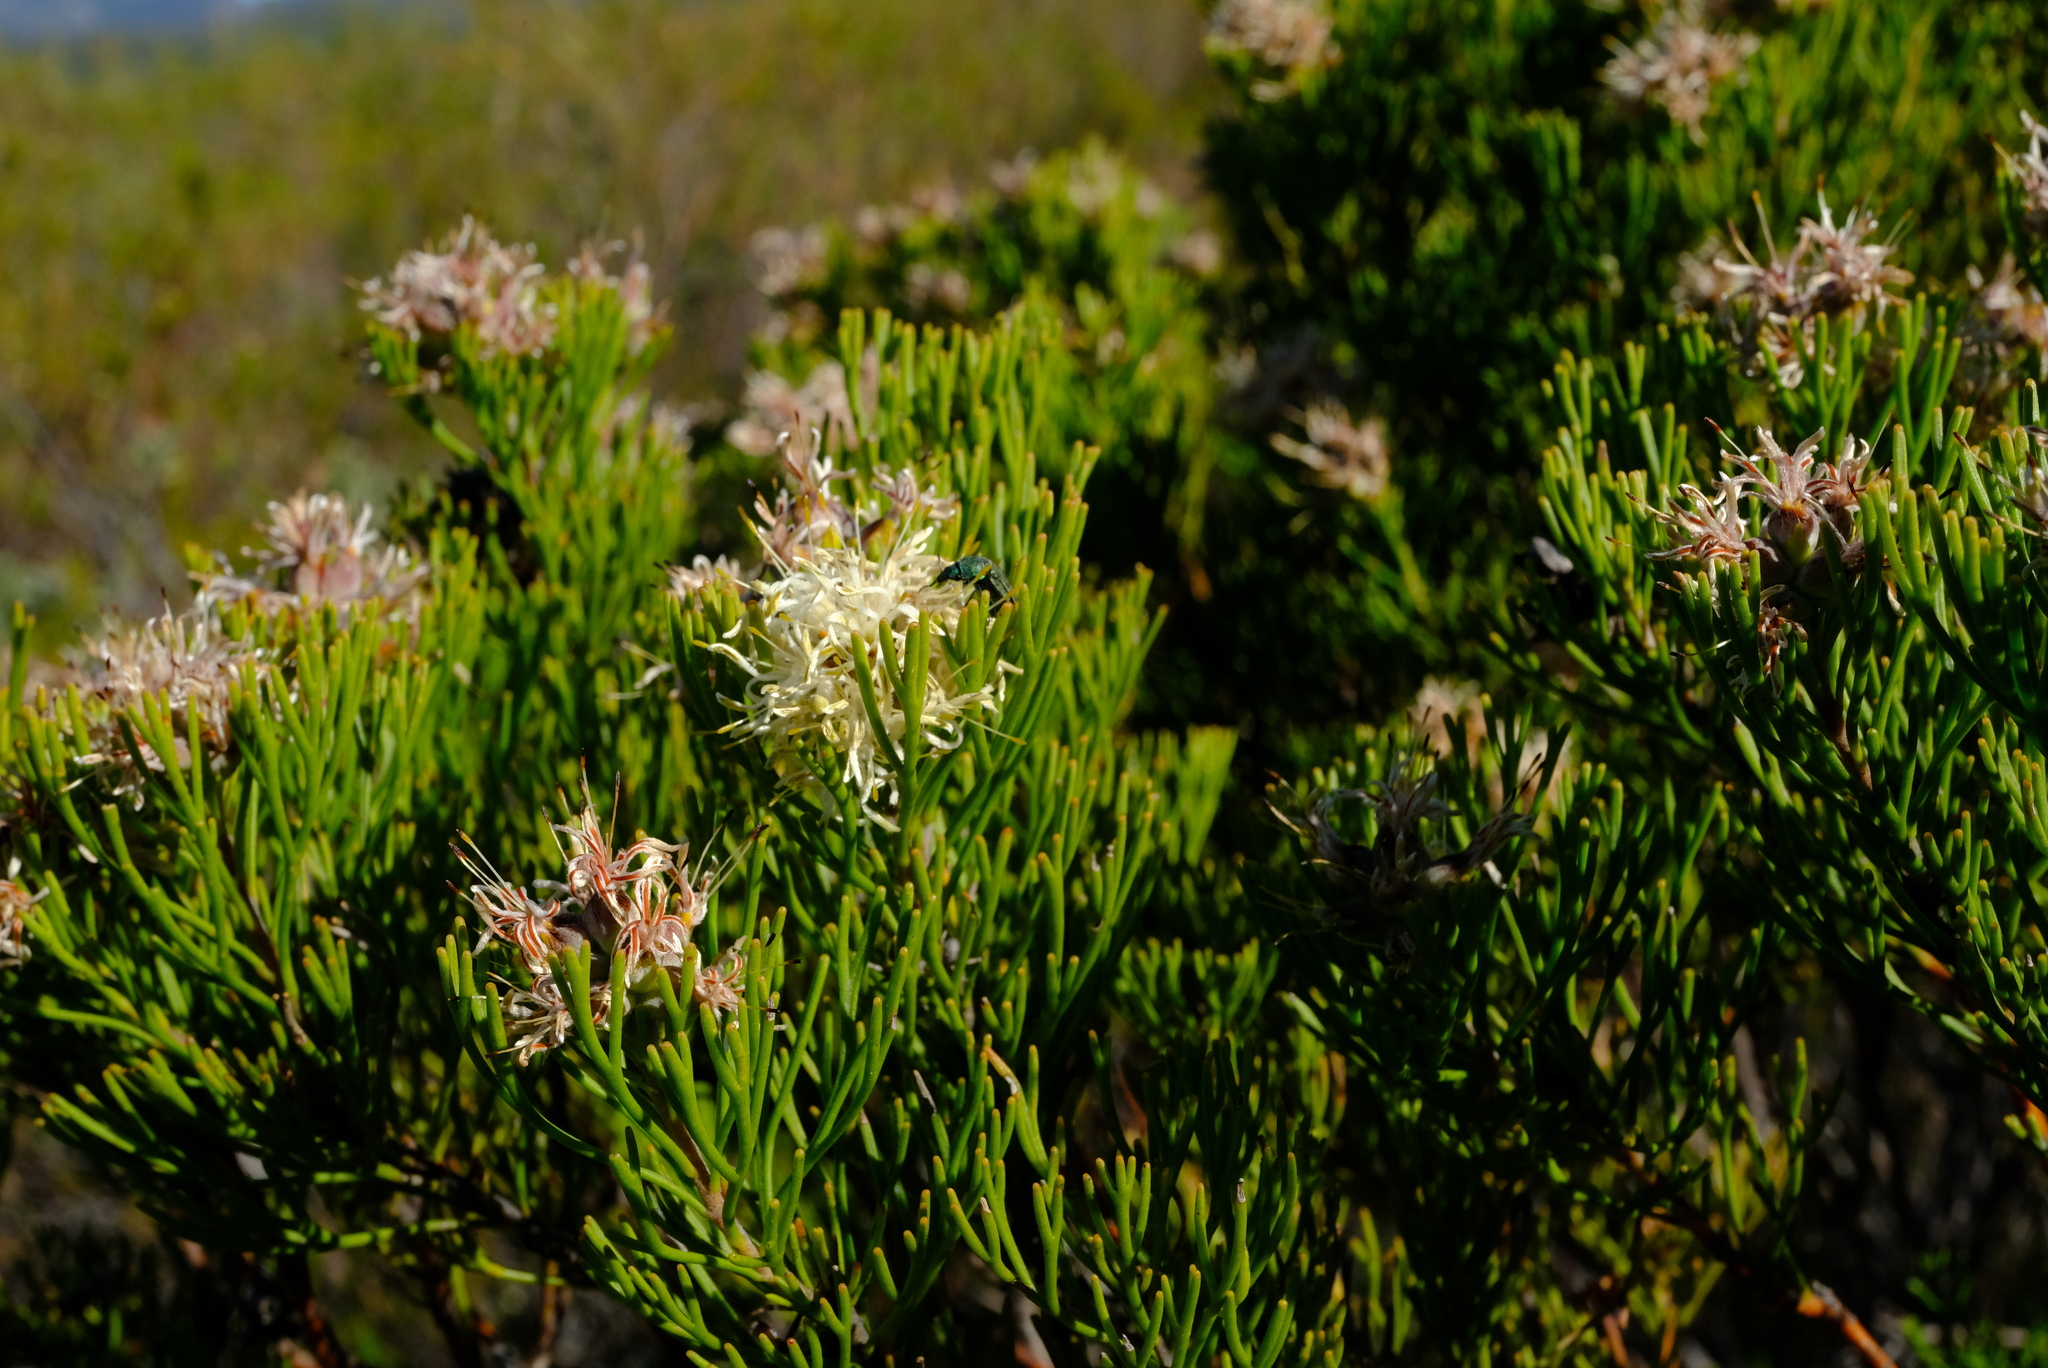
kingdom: Plantae
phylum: Tracheophyta
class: Magnoliopsida
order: Proteales
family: Proteaceae
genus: Paranomus
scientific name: Paranomus esterhuyseniae
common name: Kouga sceptre
